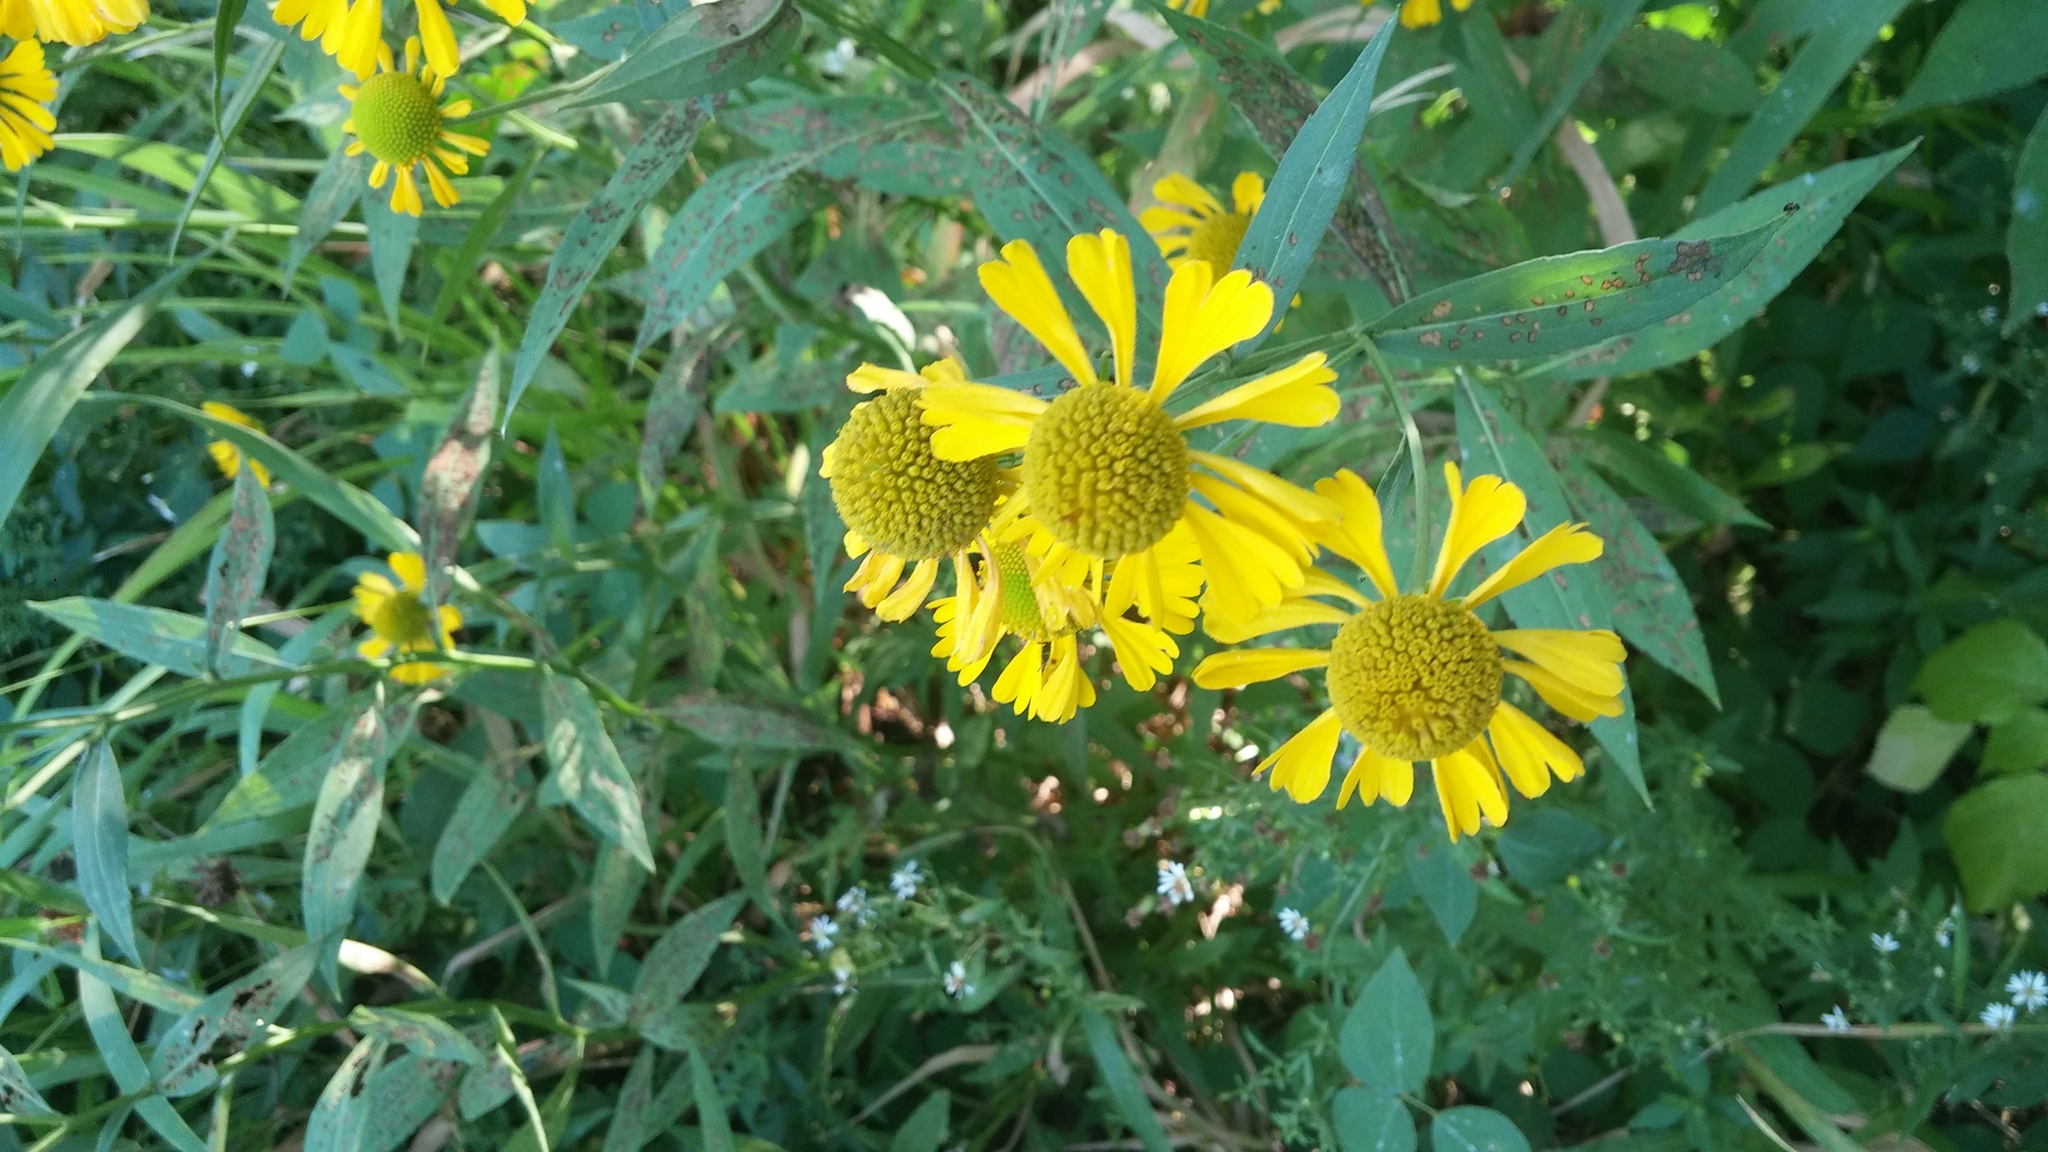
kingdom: Plantae
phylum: Tracheophyta
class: Magnoliopsida
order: Asterales
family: Asteraceae
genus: Helenium
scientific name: Helenium autumnale
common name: Sneezeweed
